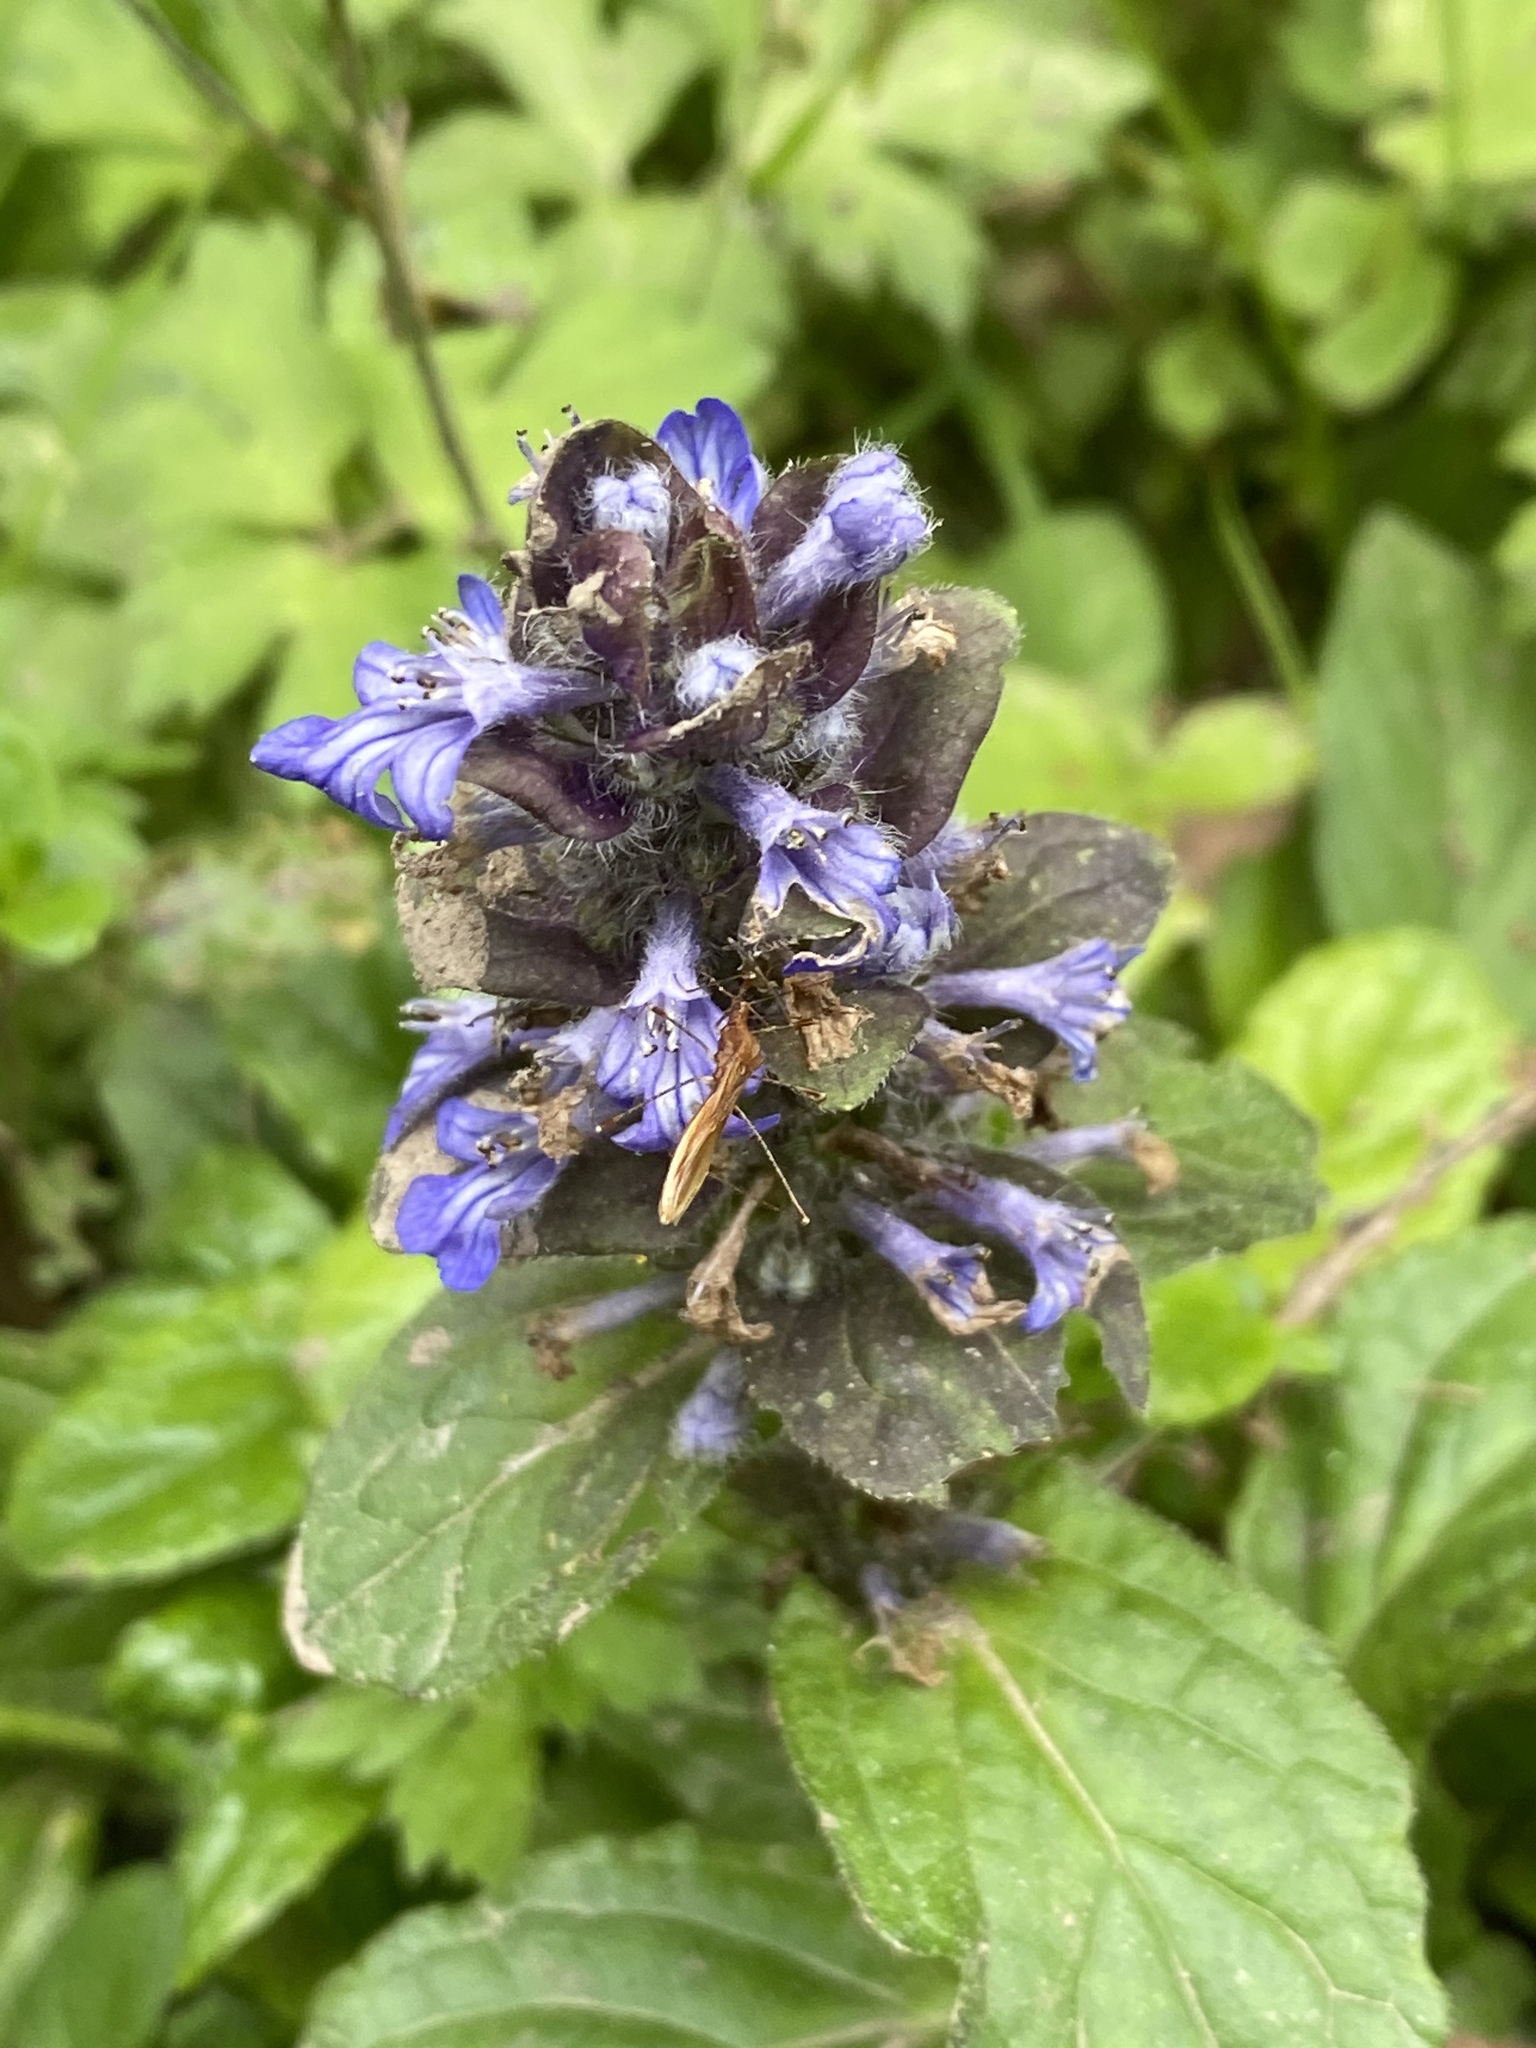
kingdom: Plantae
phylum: Tracheophyta
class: Magnoliopsida
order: Lamiales
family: Lamiaceae
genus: Ajuga
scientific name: Ajuga reptans
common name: Bugle
